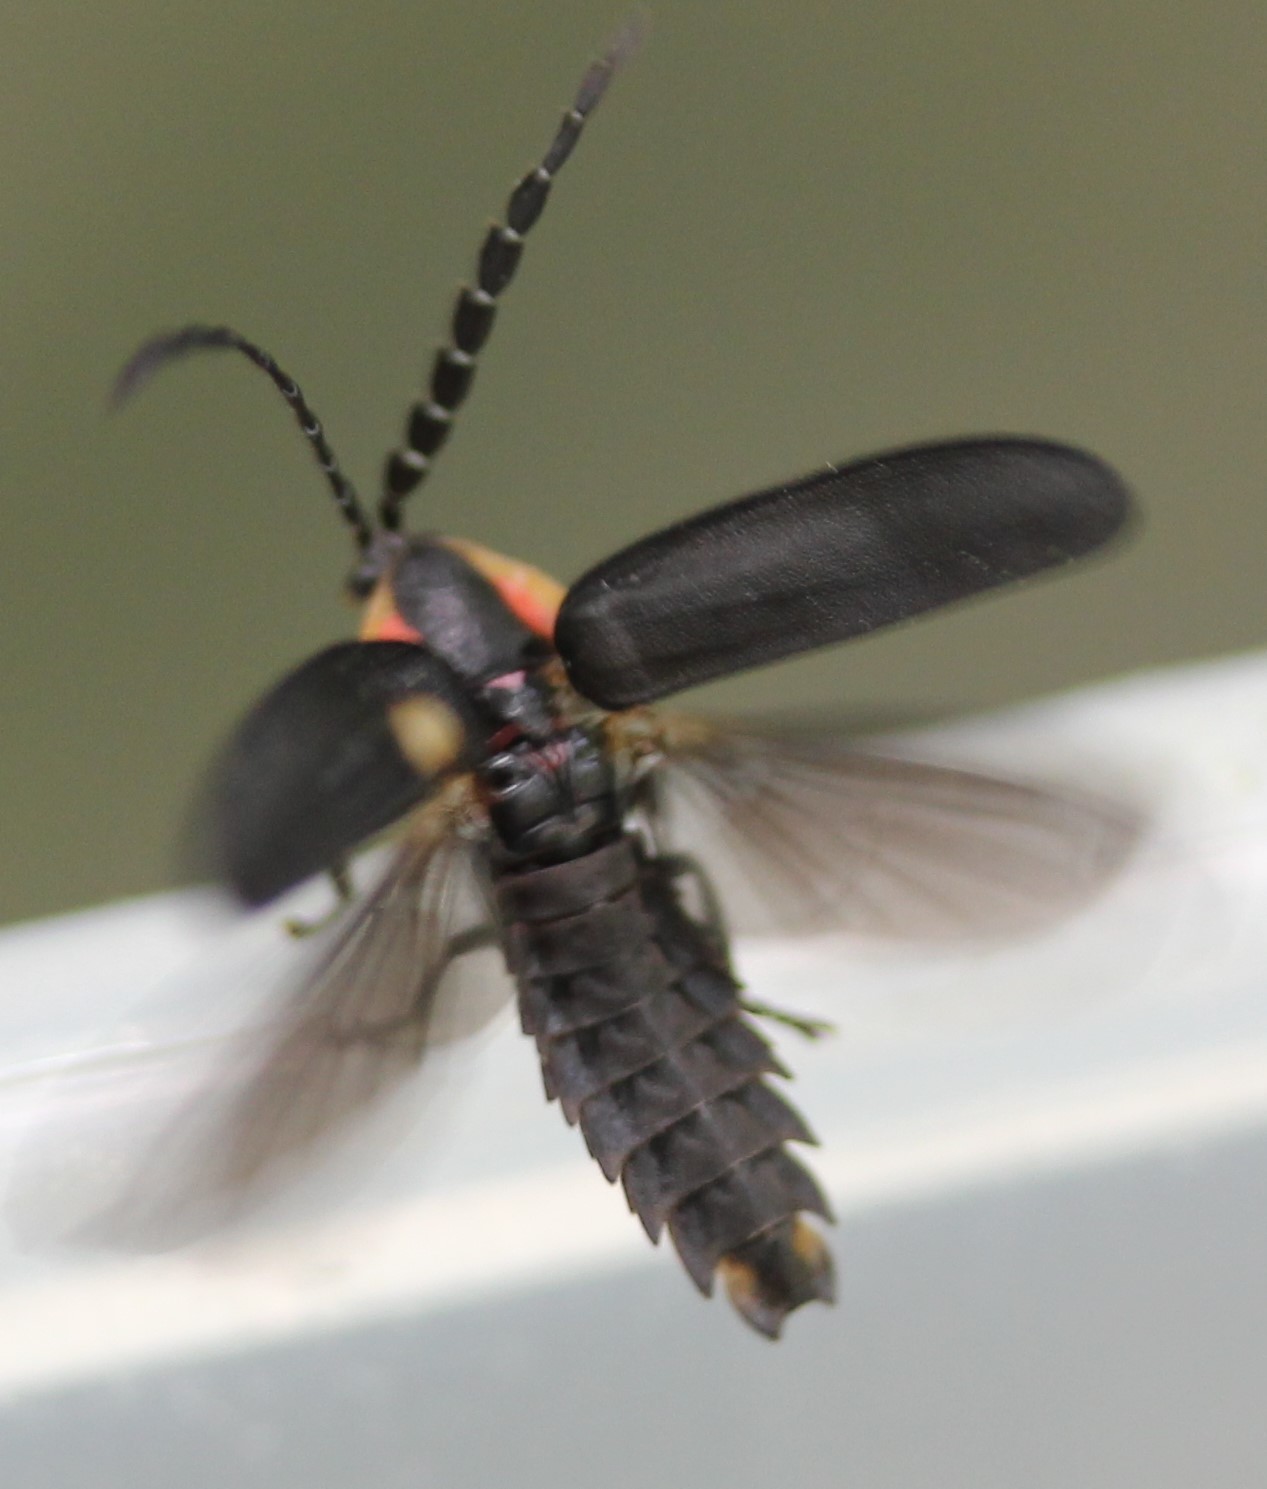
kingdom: Animalia
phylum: Arthropoda
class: Insecta
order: Coleoptera
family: Lampyridae
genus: Lucidota
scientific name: Lucidota atra
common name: Black firefly
